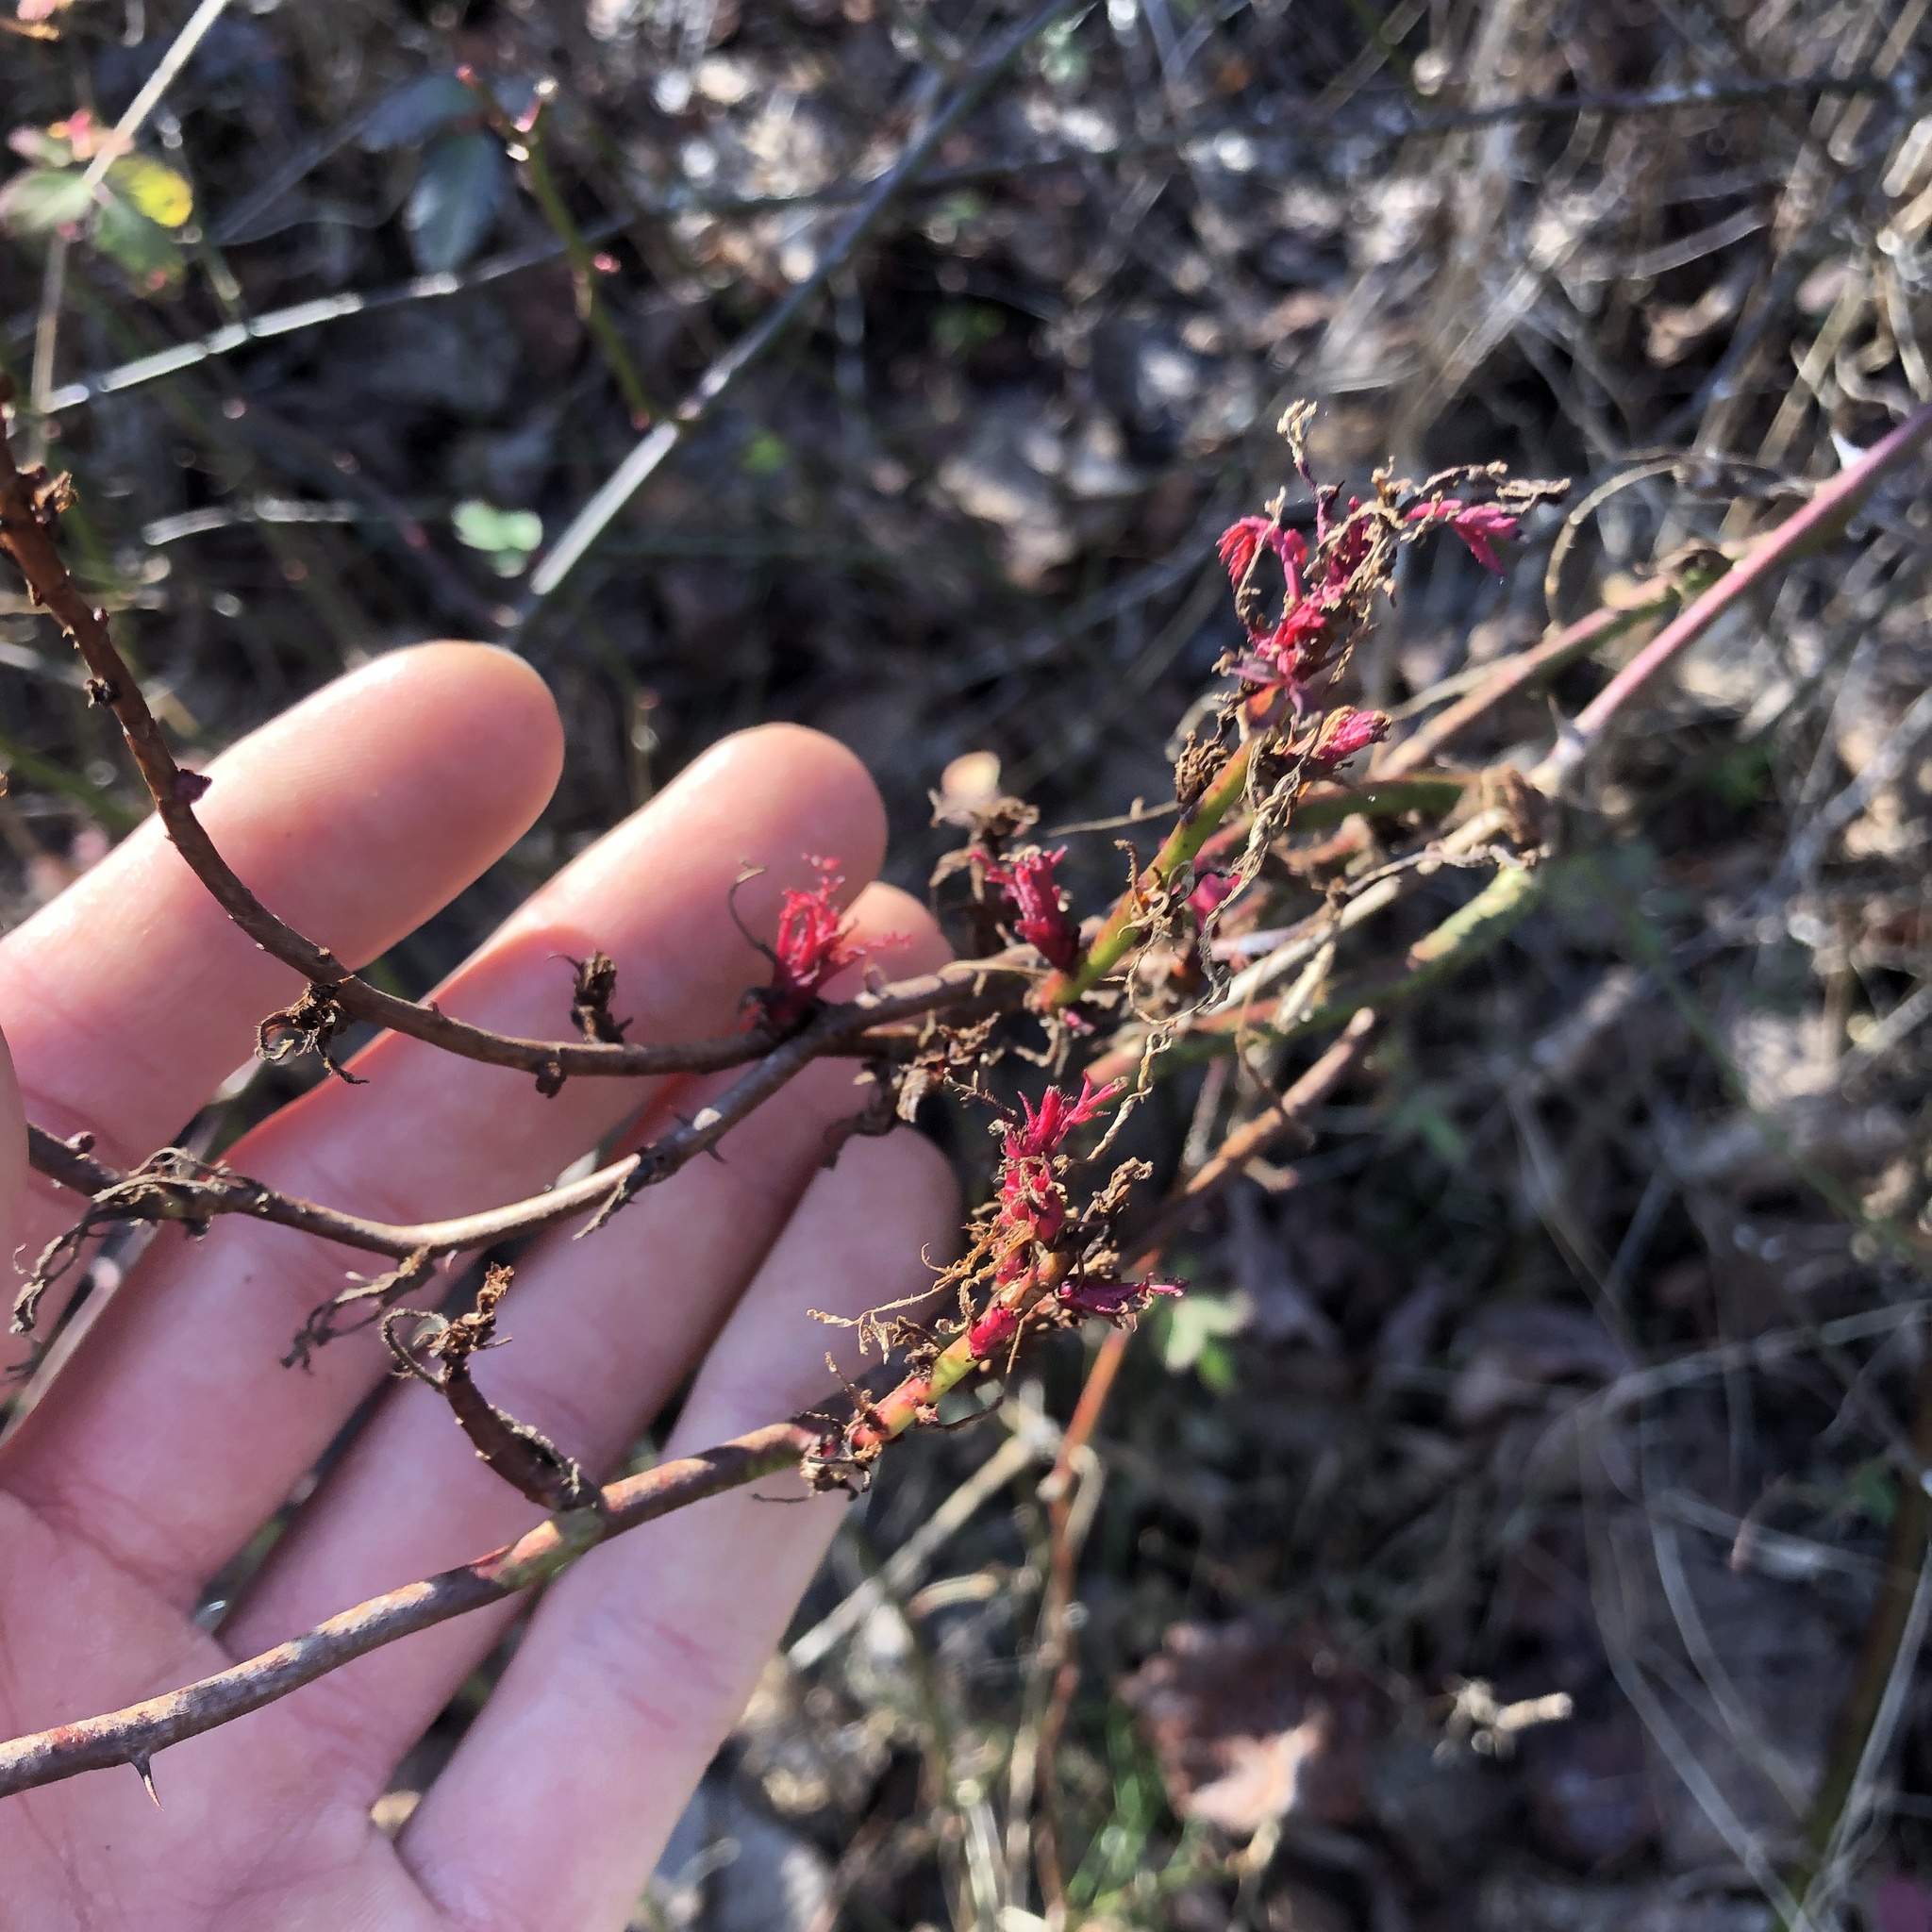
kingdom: Viruses
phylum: Negarnaviricota
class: Ellioviricetes
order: Bunyavirales
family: Fimoviridae
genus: Emaravirus
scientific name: Emaravirus rosae
